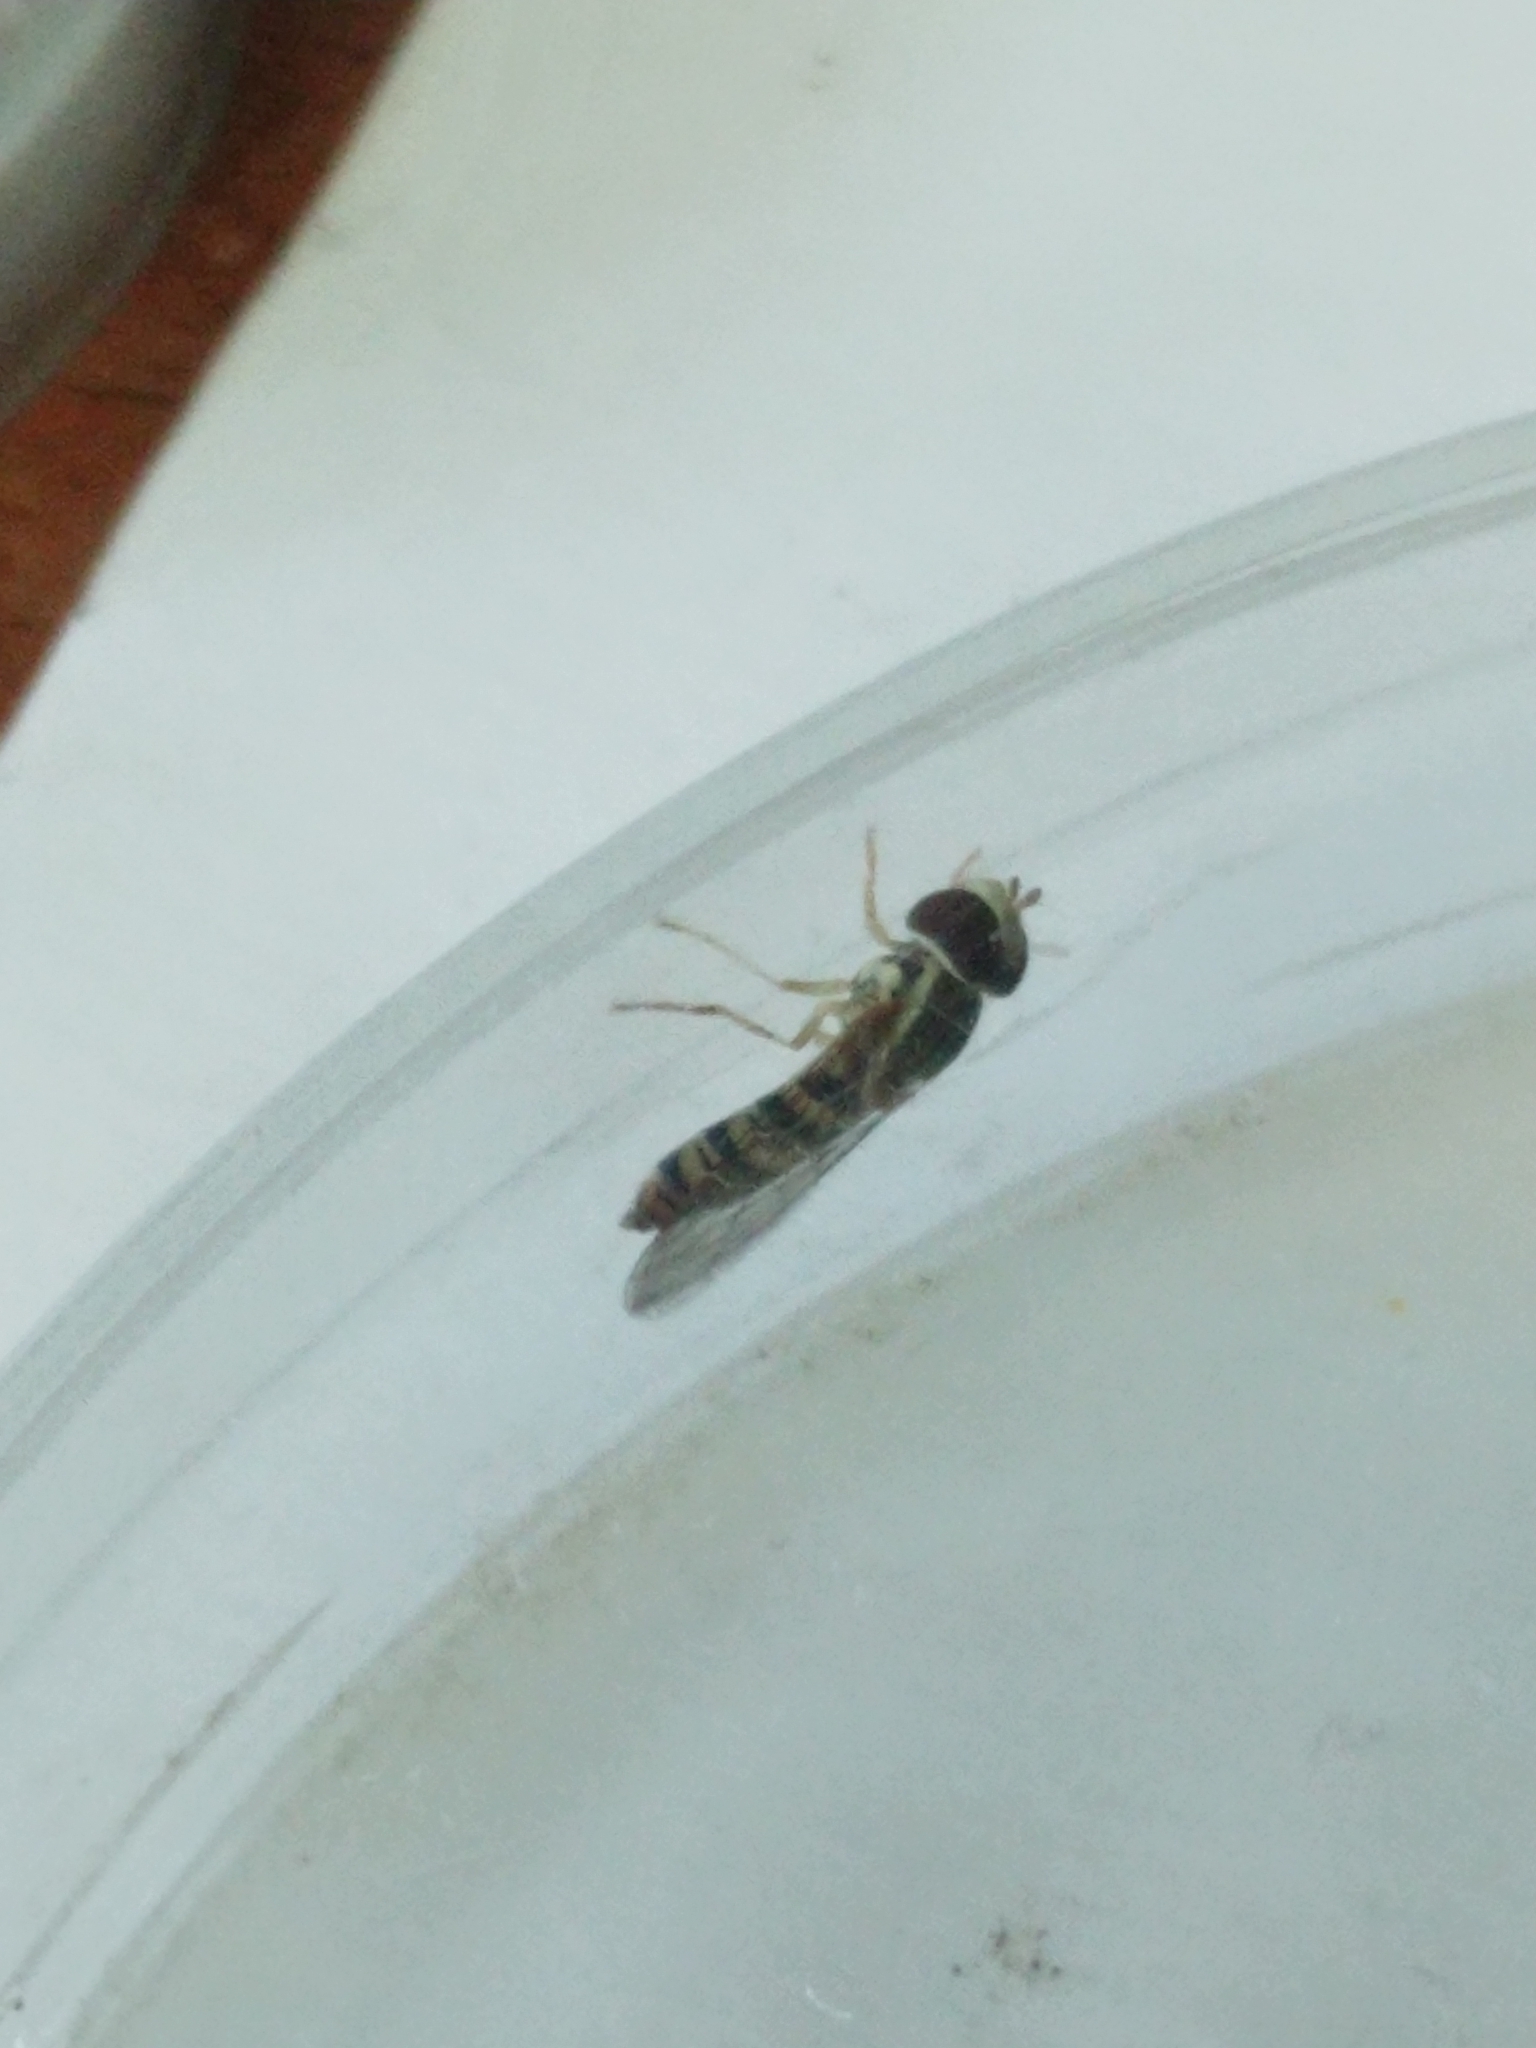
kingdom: Animalia
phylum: Arthropoda
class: Insecta
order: Diptera
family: Syrphidae
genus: Toxomerus
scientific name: Toxomerus politus
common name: Maize calligrapher
